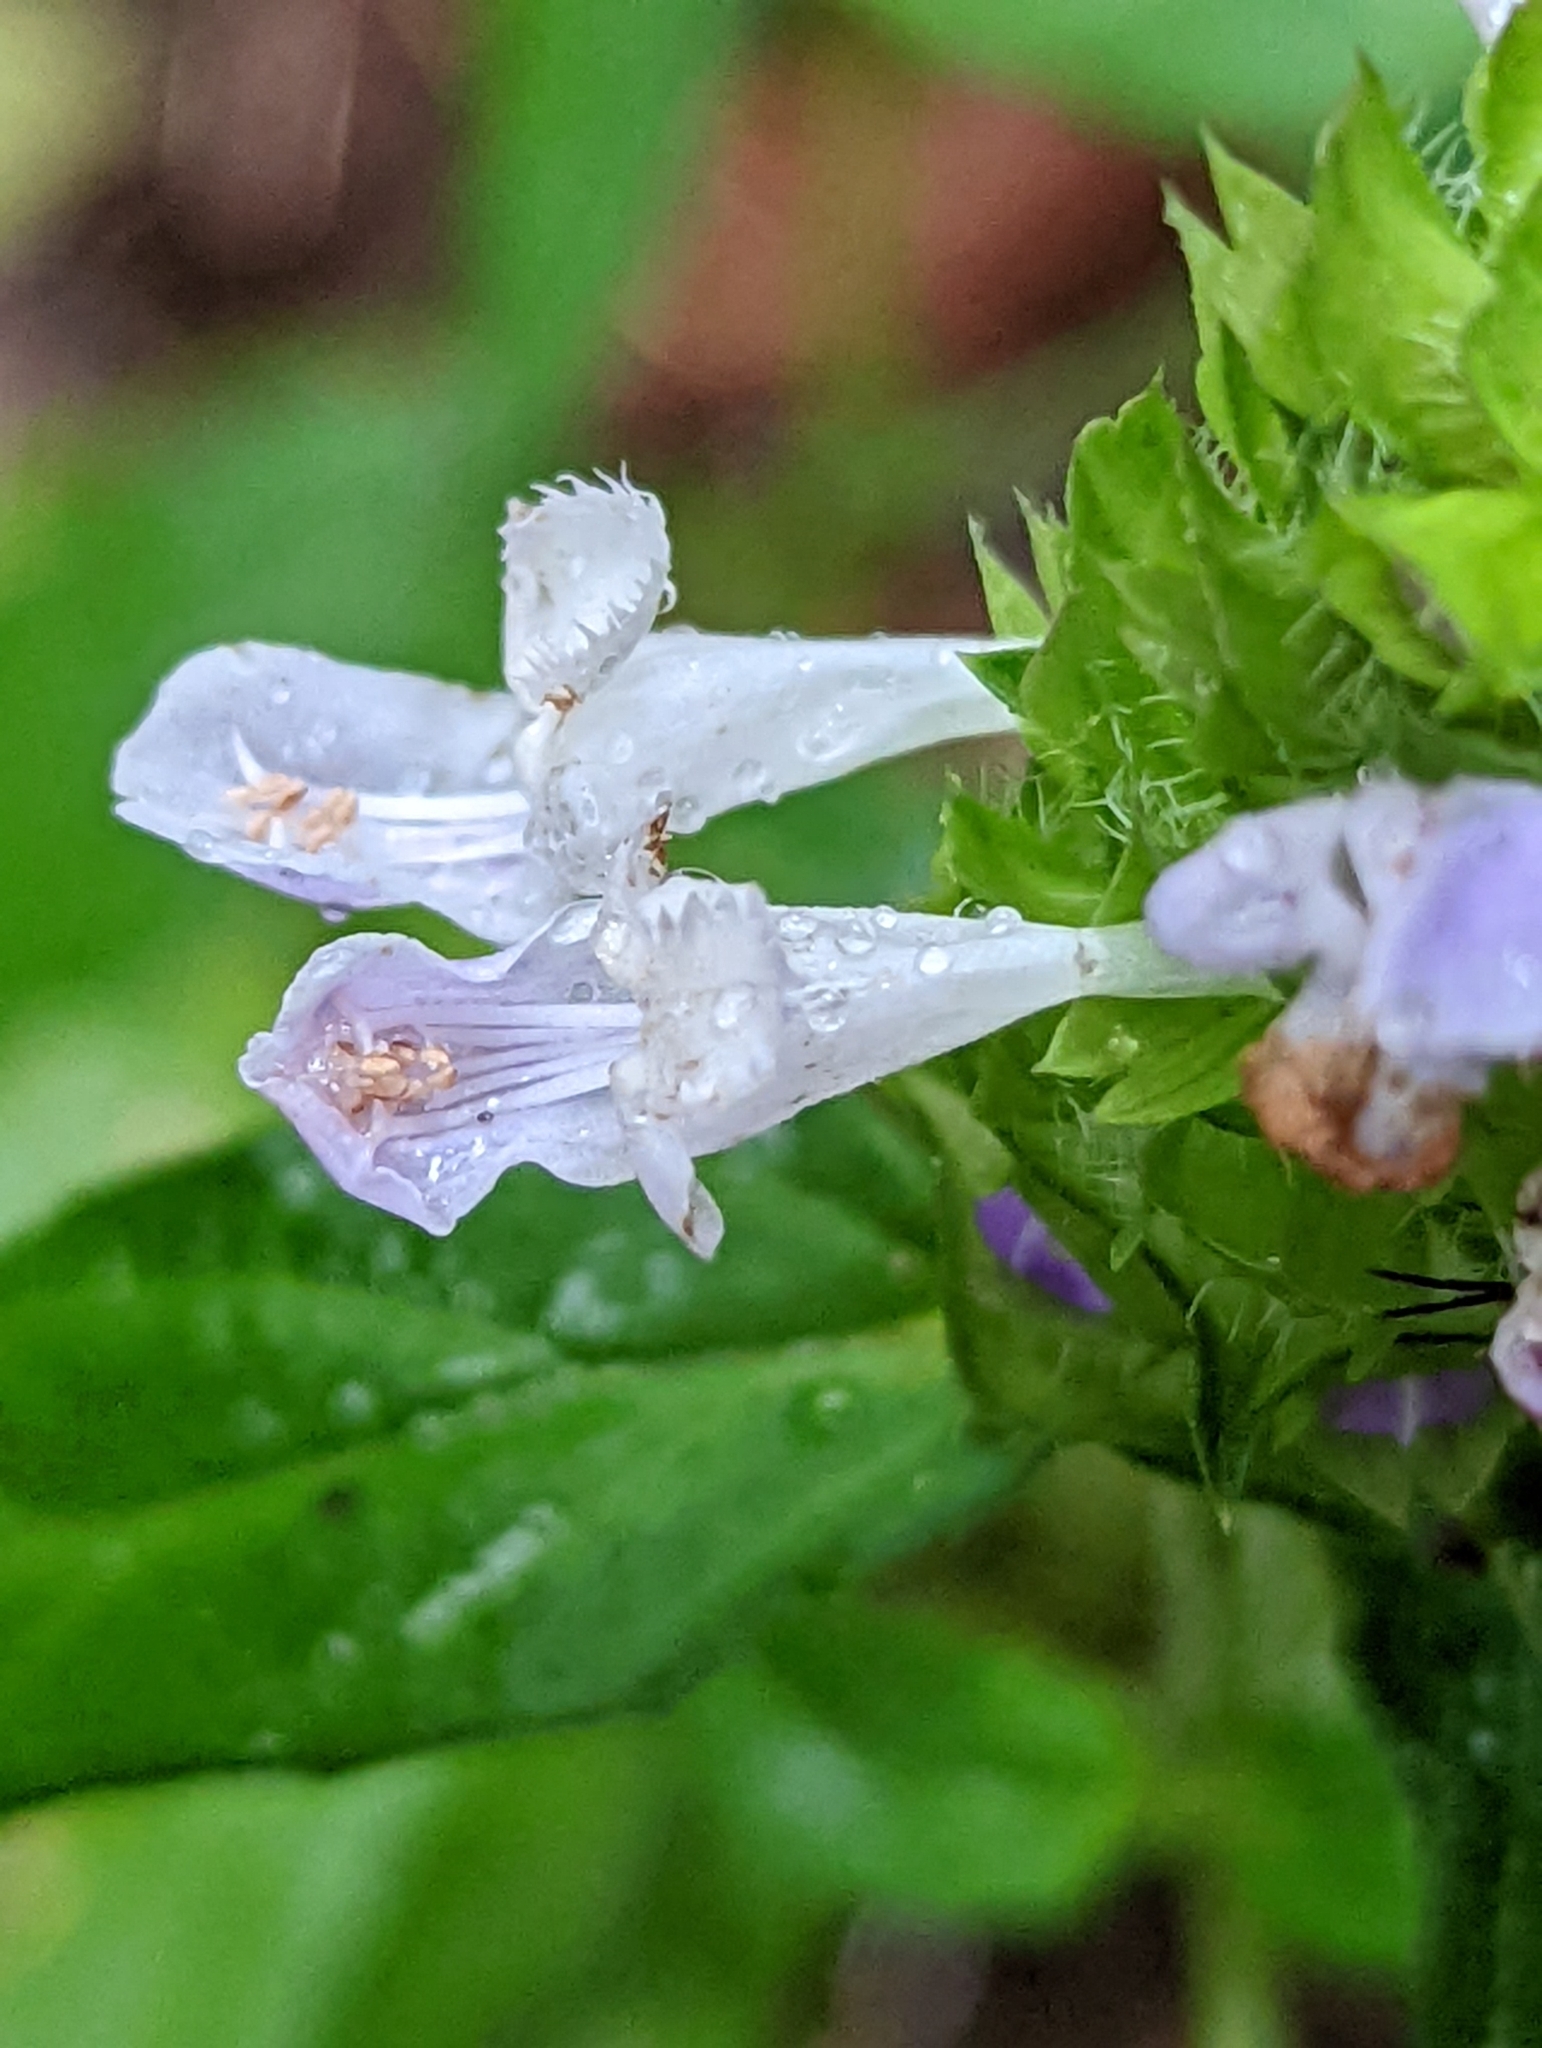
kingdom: Plantae
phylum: Tracheophyta
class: Magnoliopsida
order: Lamiales
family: Lamiaceae
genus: Prunella
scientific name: Prunella vulgaris
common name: Heal-all
